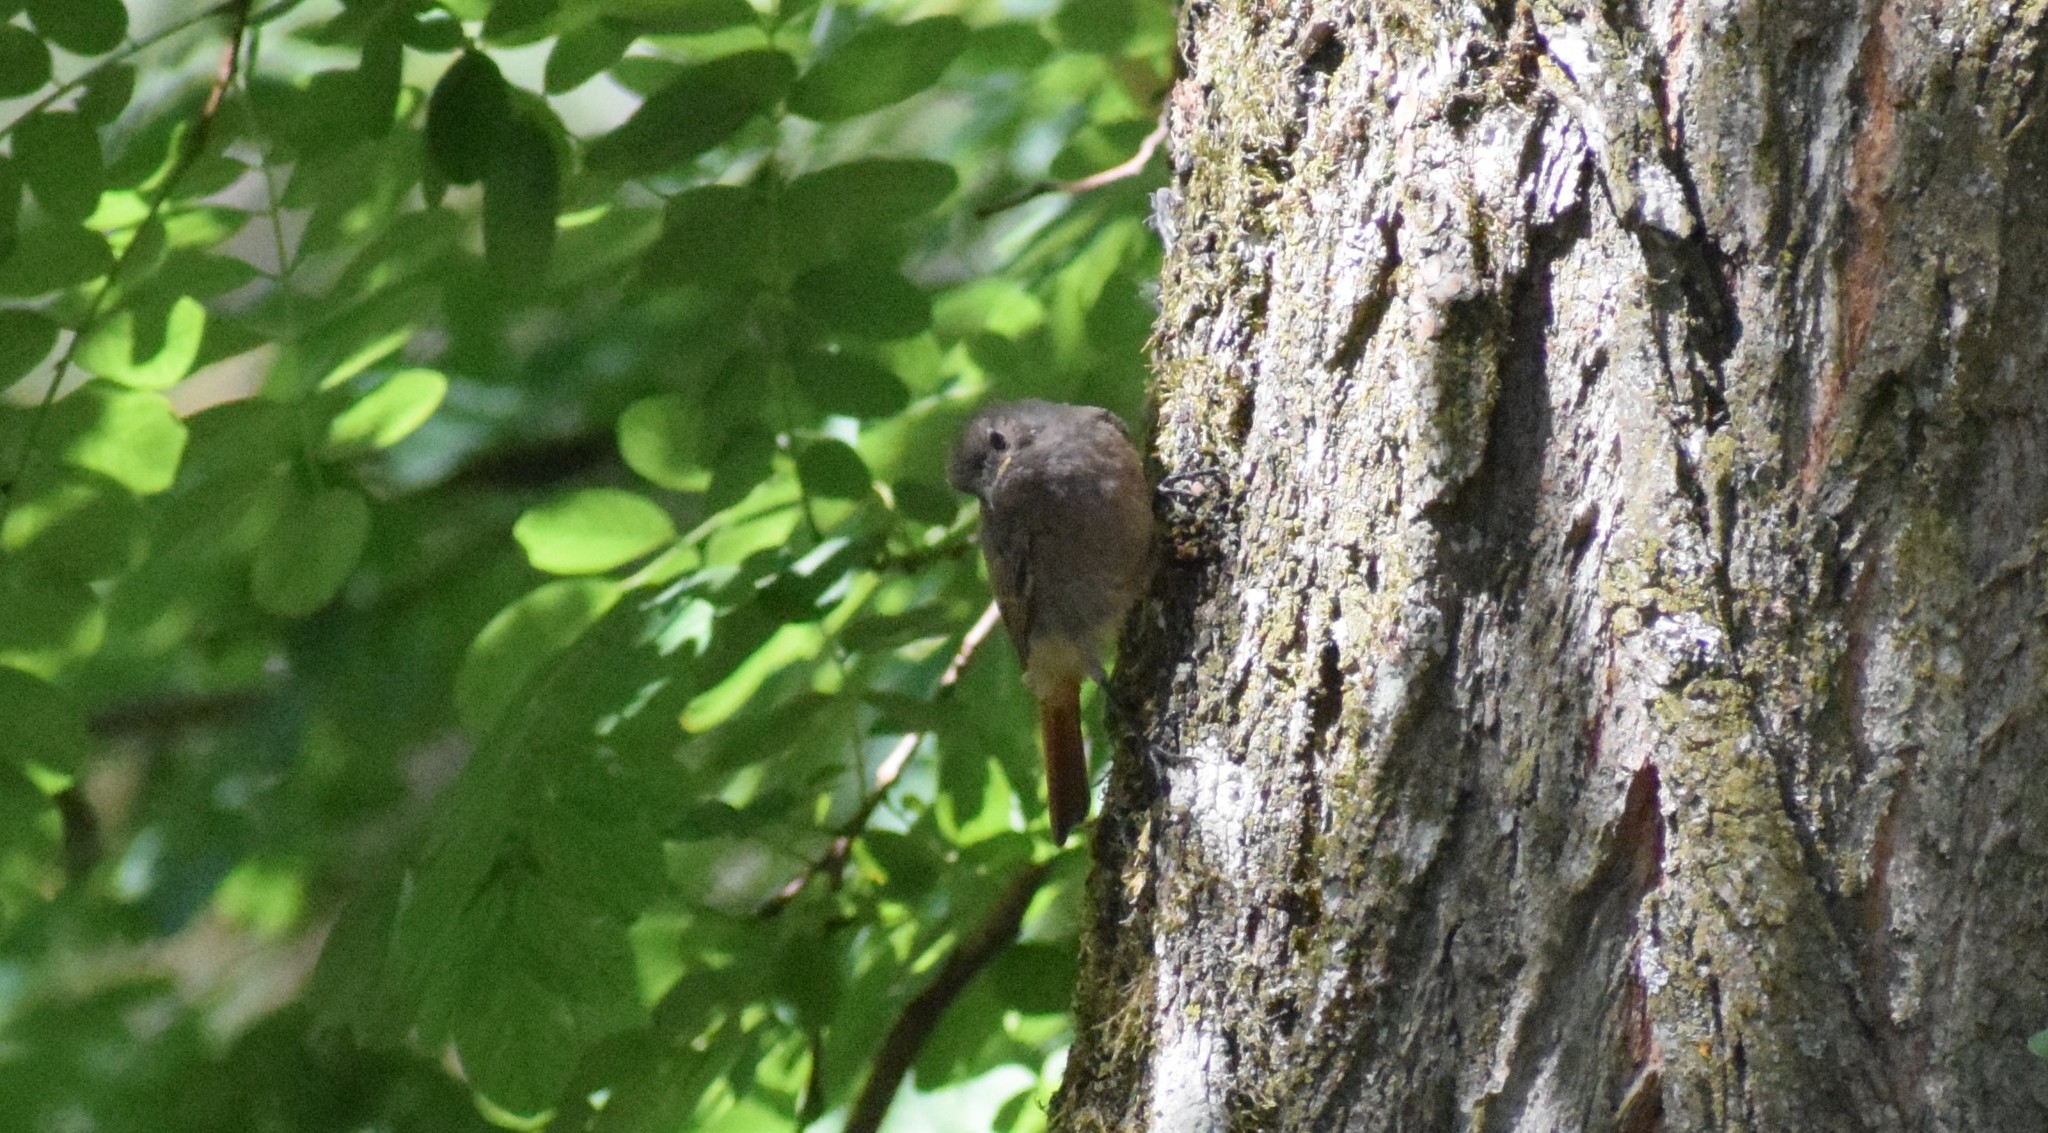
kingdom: Animalia
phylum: Chordata
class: Aves
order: Passeriformes
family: Muscicapidae
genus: Phoenicurus
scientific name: Phoenicurus ochruros
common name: Black redstart
